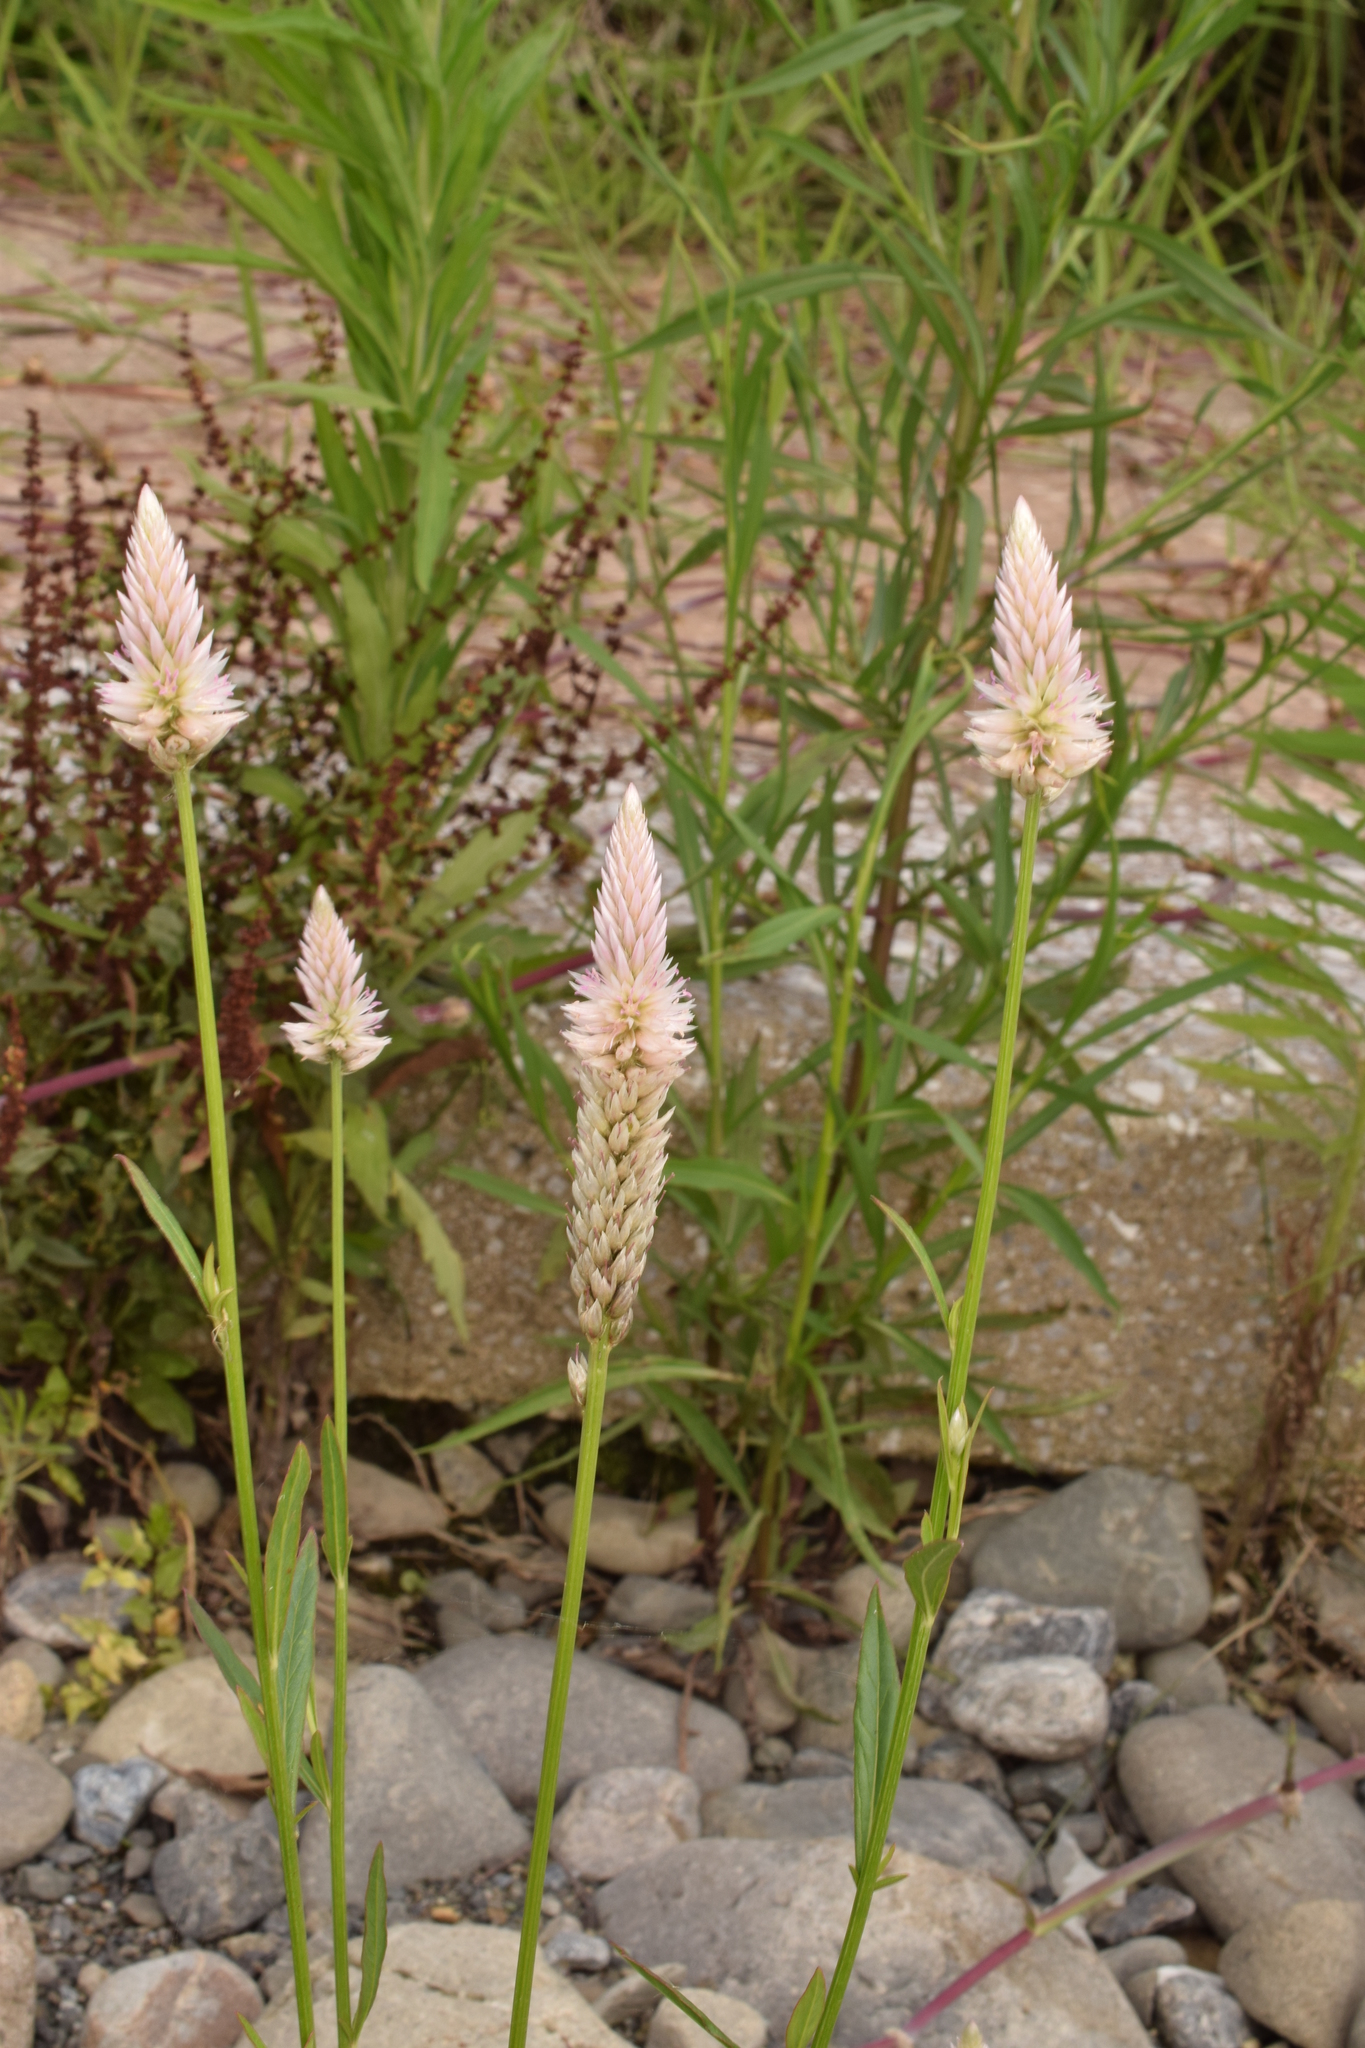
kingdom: Plantae
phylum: Tracheophyta
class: Magnoliopsida
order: Caryophyllales
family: Amaranthaceae
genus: Celosia
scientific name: Celosia argentea
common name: Feather cockscomb
